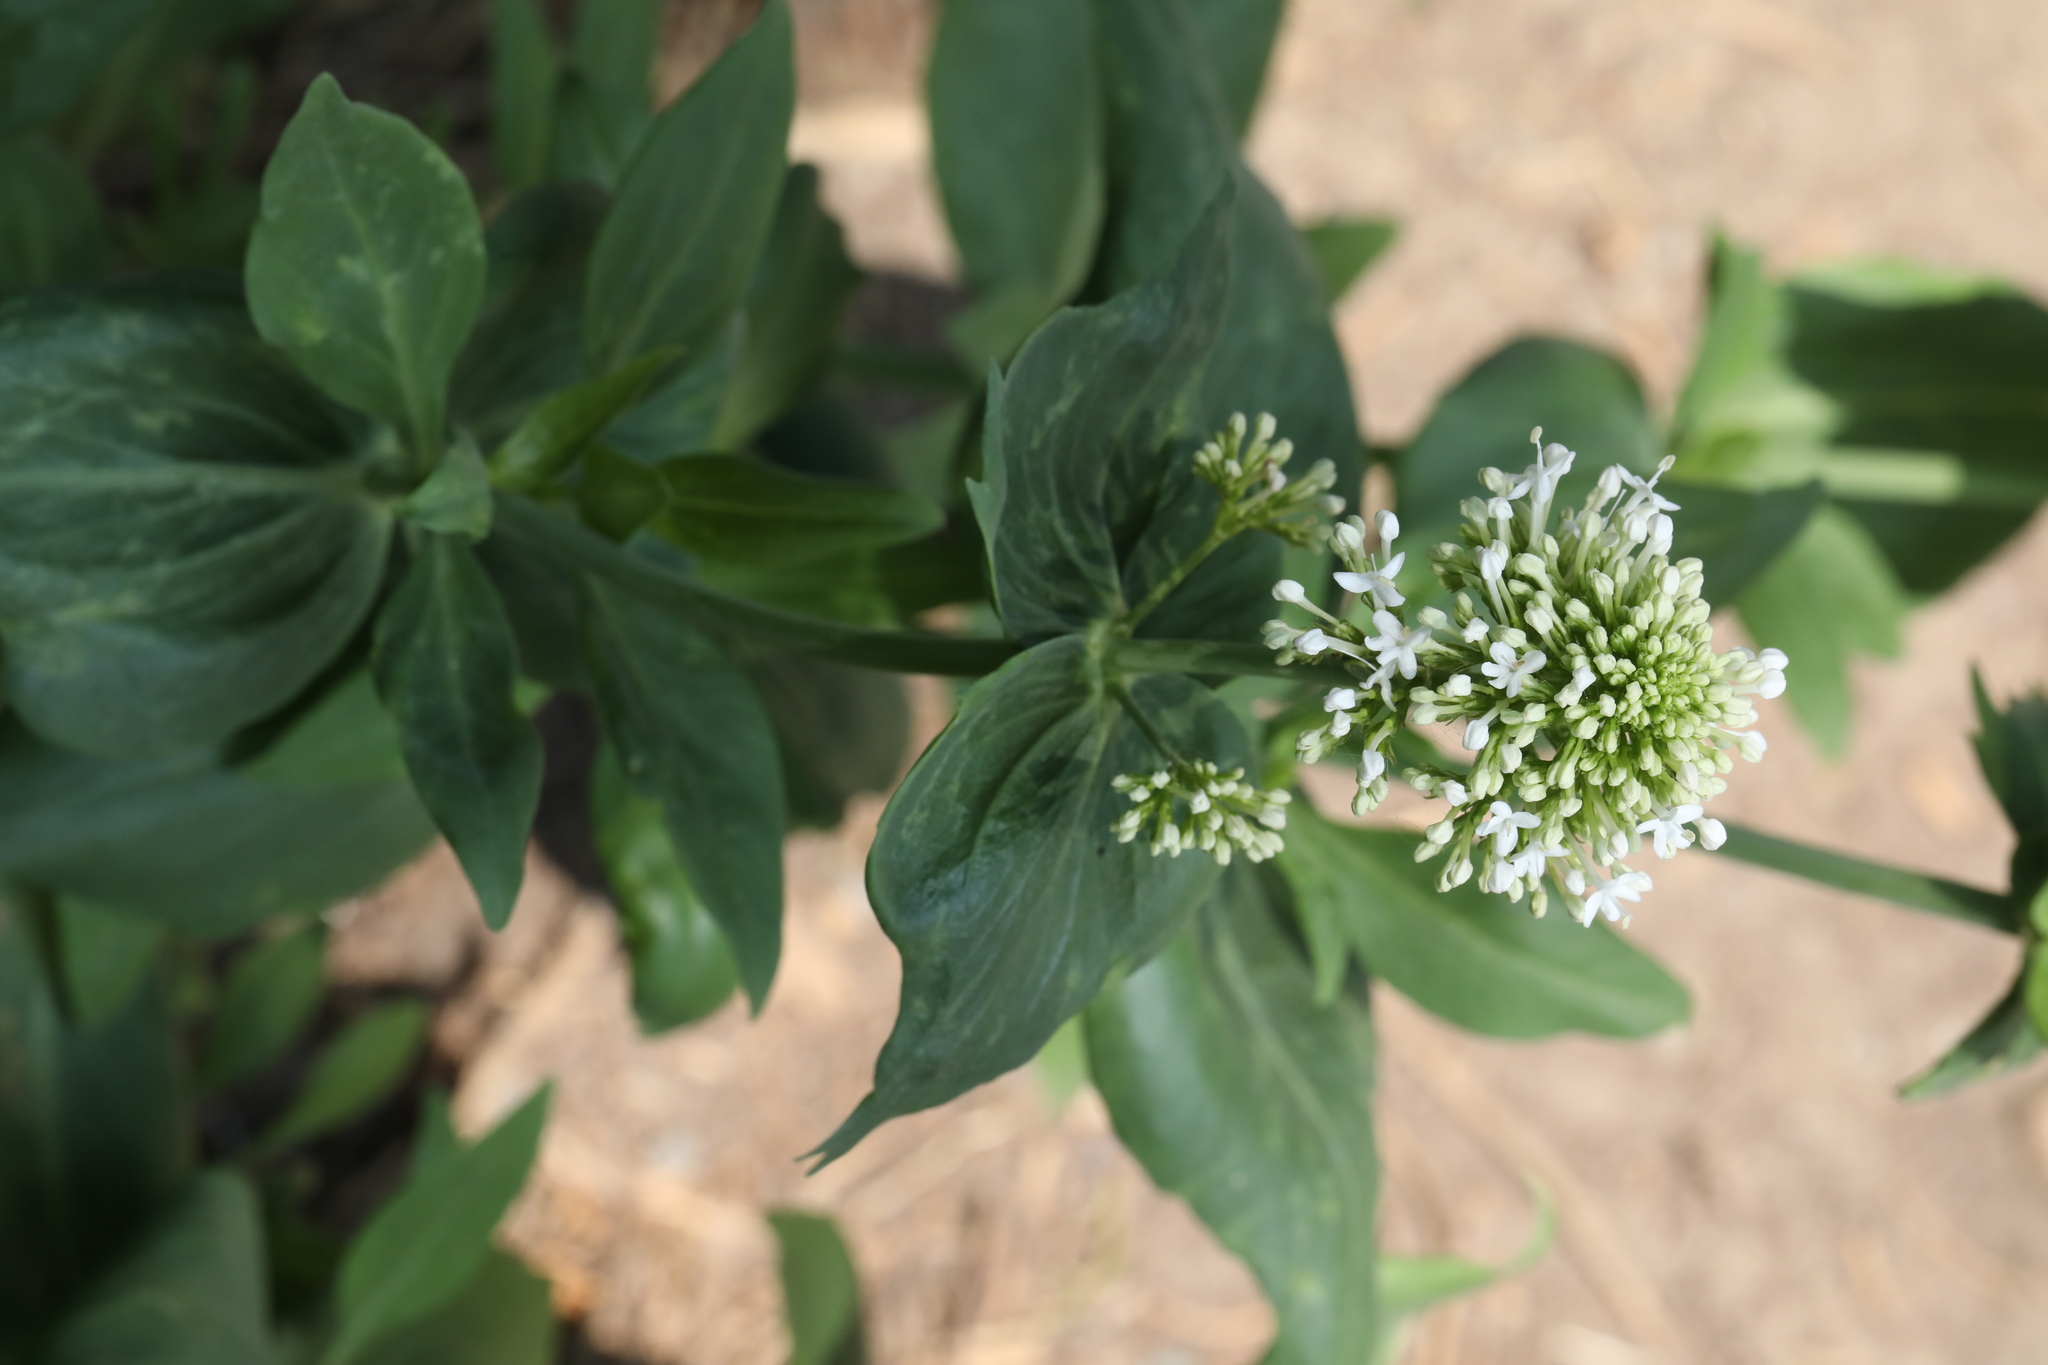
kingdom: Plantae
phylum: Tracheophyta
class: Magnoliopsida
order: Dipsacales
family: Caprifoliaceae
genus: Centranthus
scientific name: Centranthus ruber
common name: Red valerian
